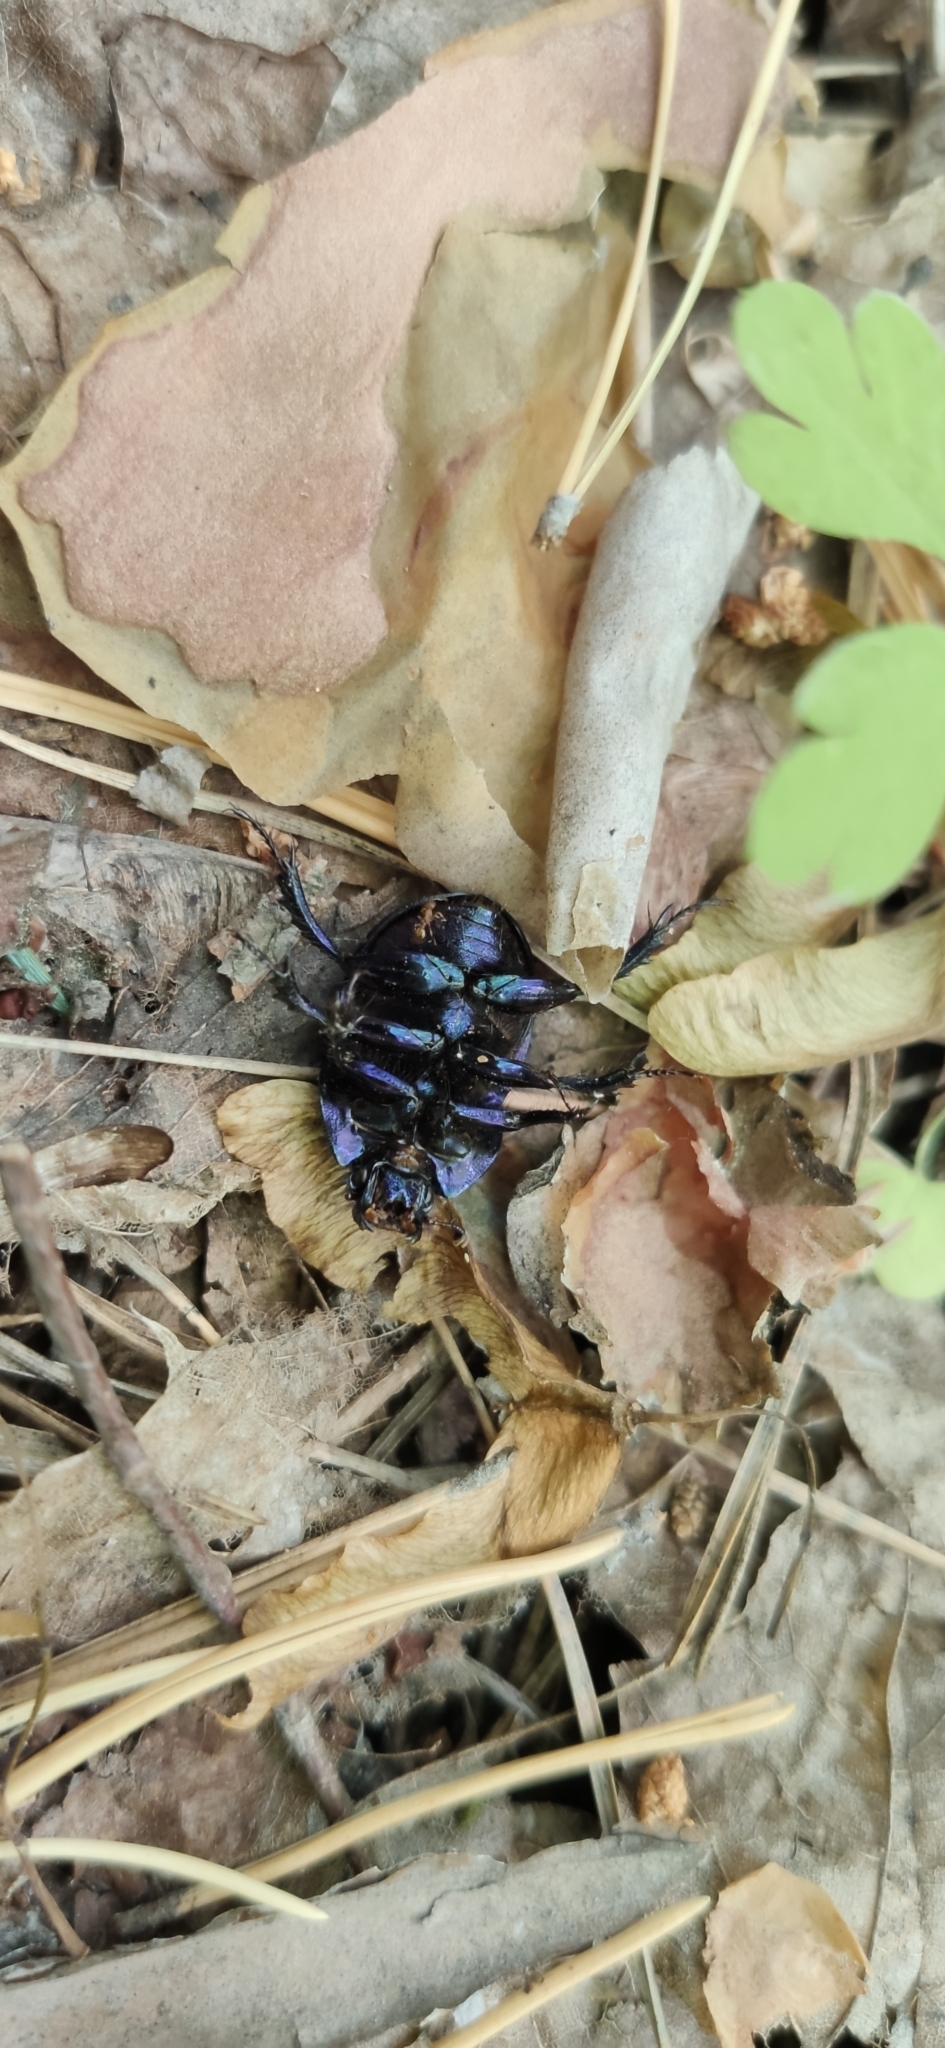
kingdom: Animalia
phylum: Arthropoda
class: Insecta
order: Coleoptera
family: Geotrupidae
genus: Anoplotrupes
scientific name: Anoplotrupes stercorosus
